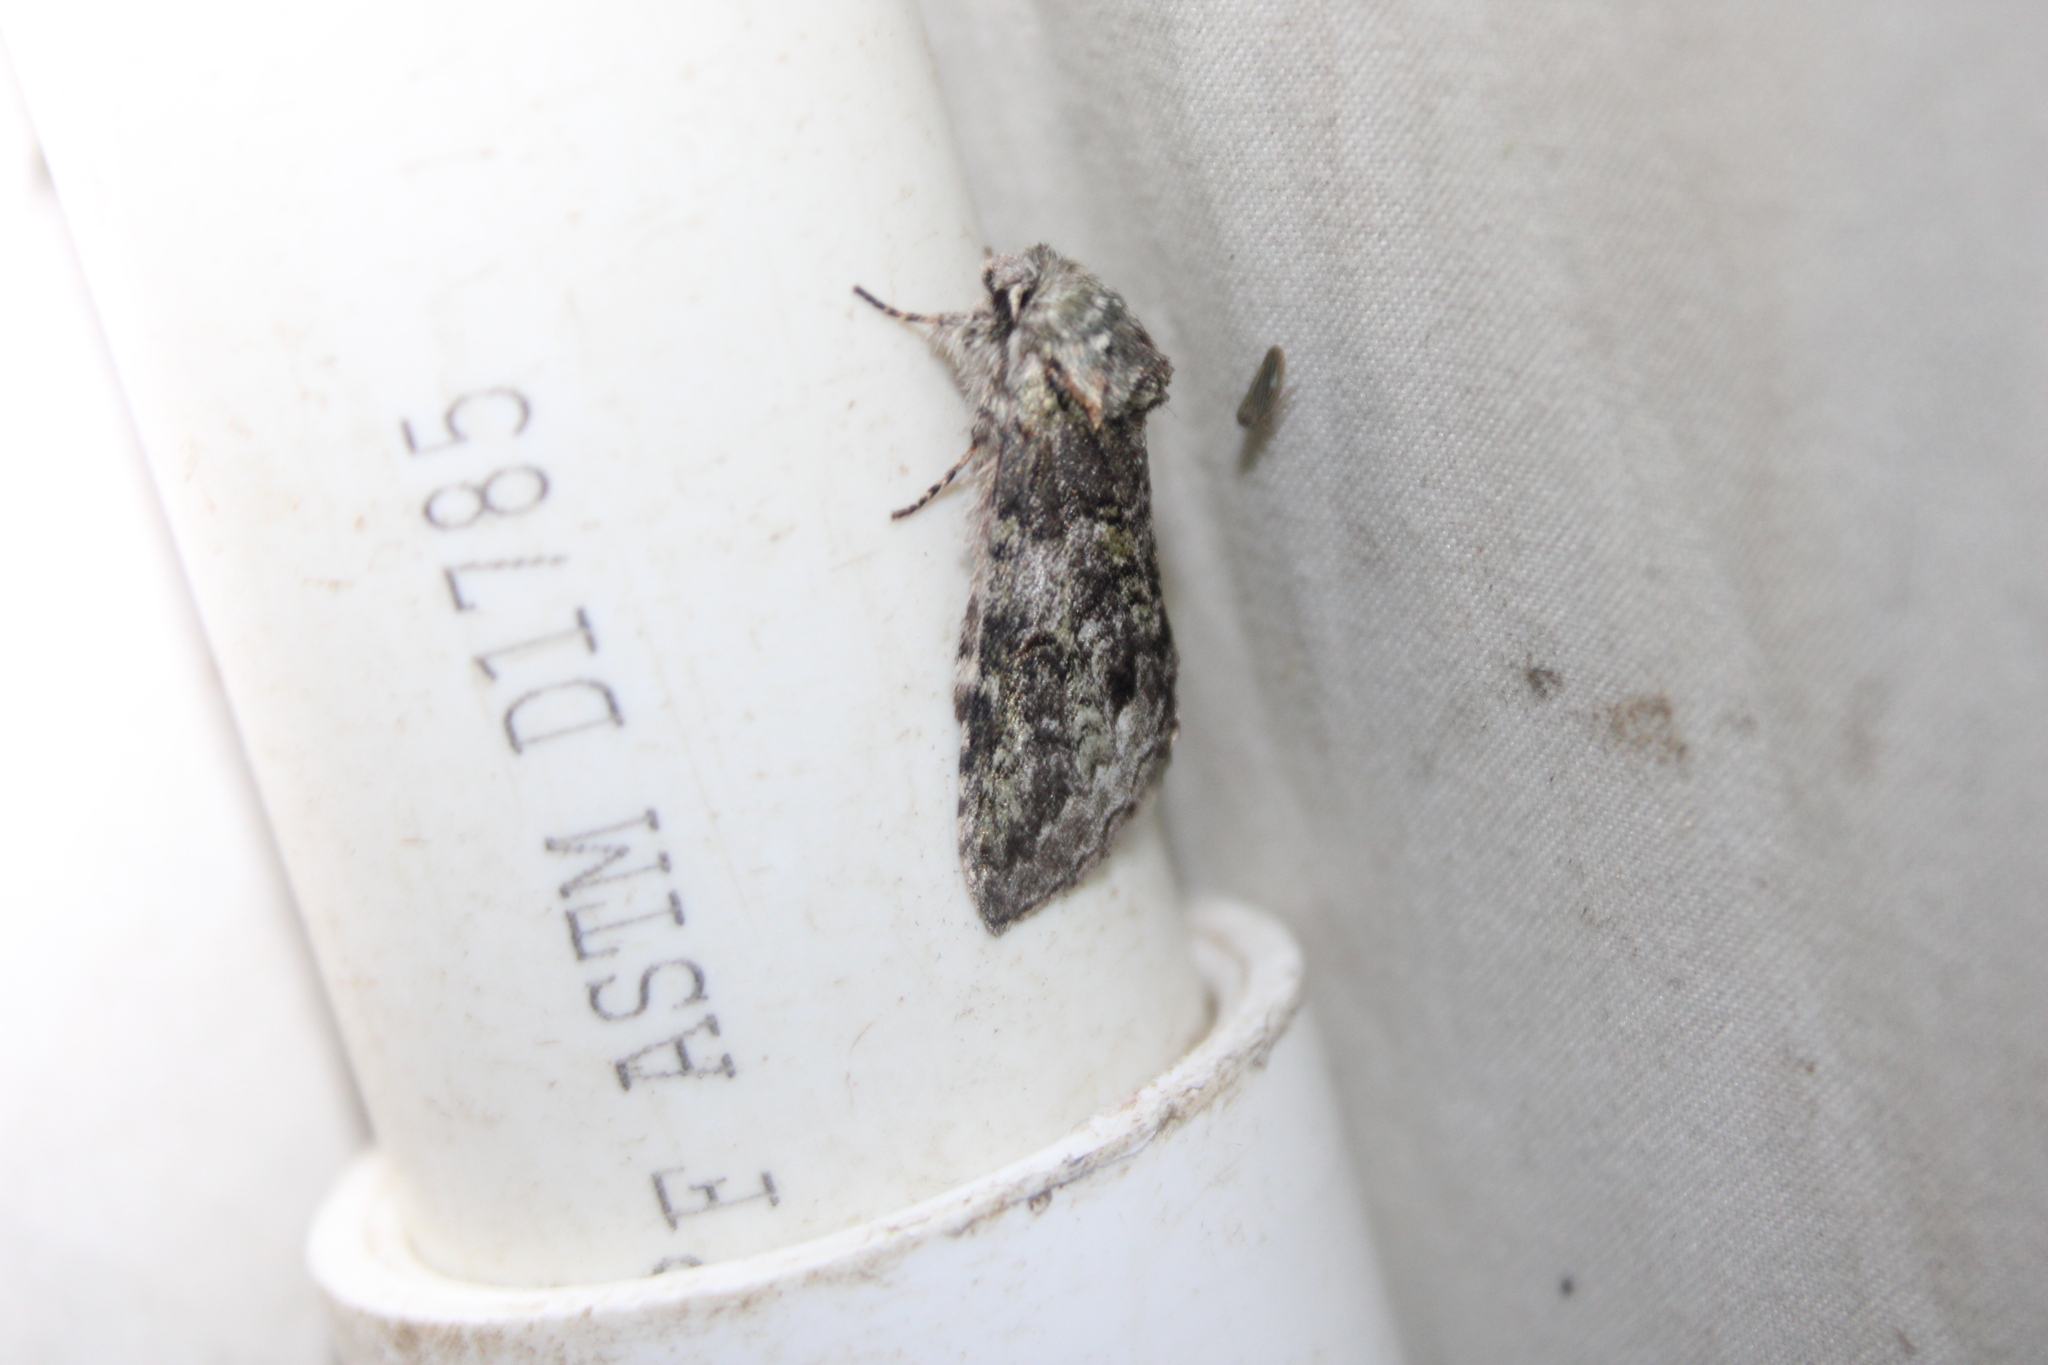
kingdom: Animalia
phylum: Arthropoda
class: Insecta
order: Lepidoptera
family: Notodontidae
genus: Macrurocampa
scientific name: Macrurocampa marthesia
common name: Mottled prominent
